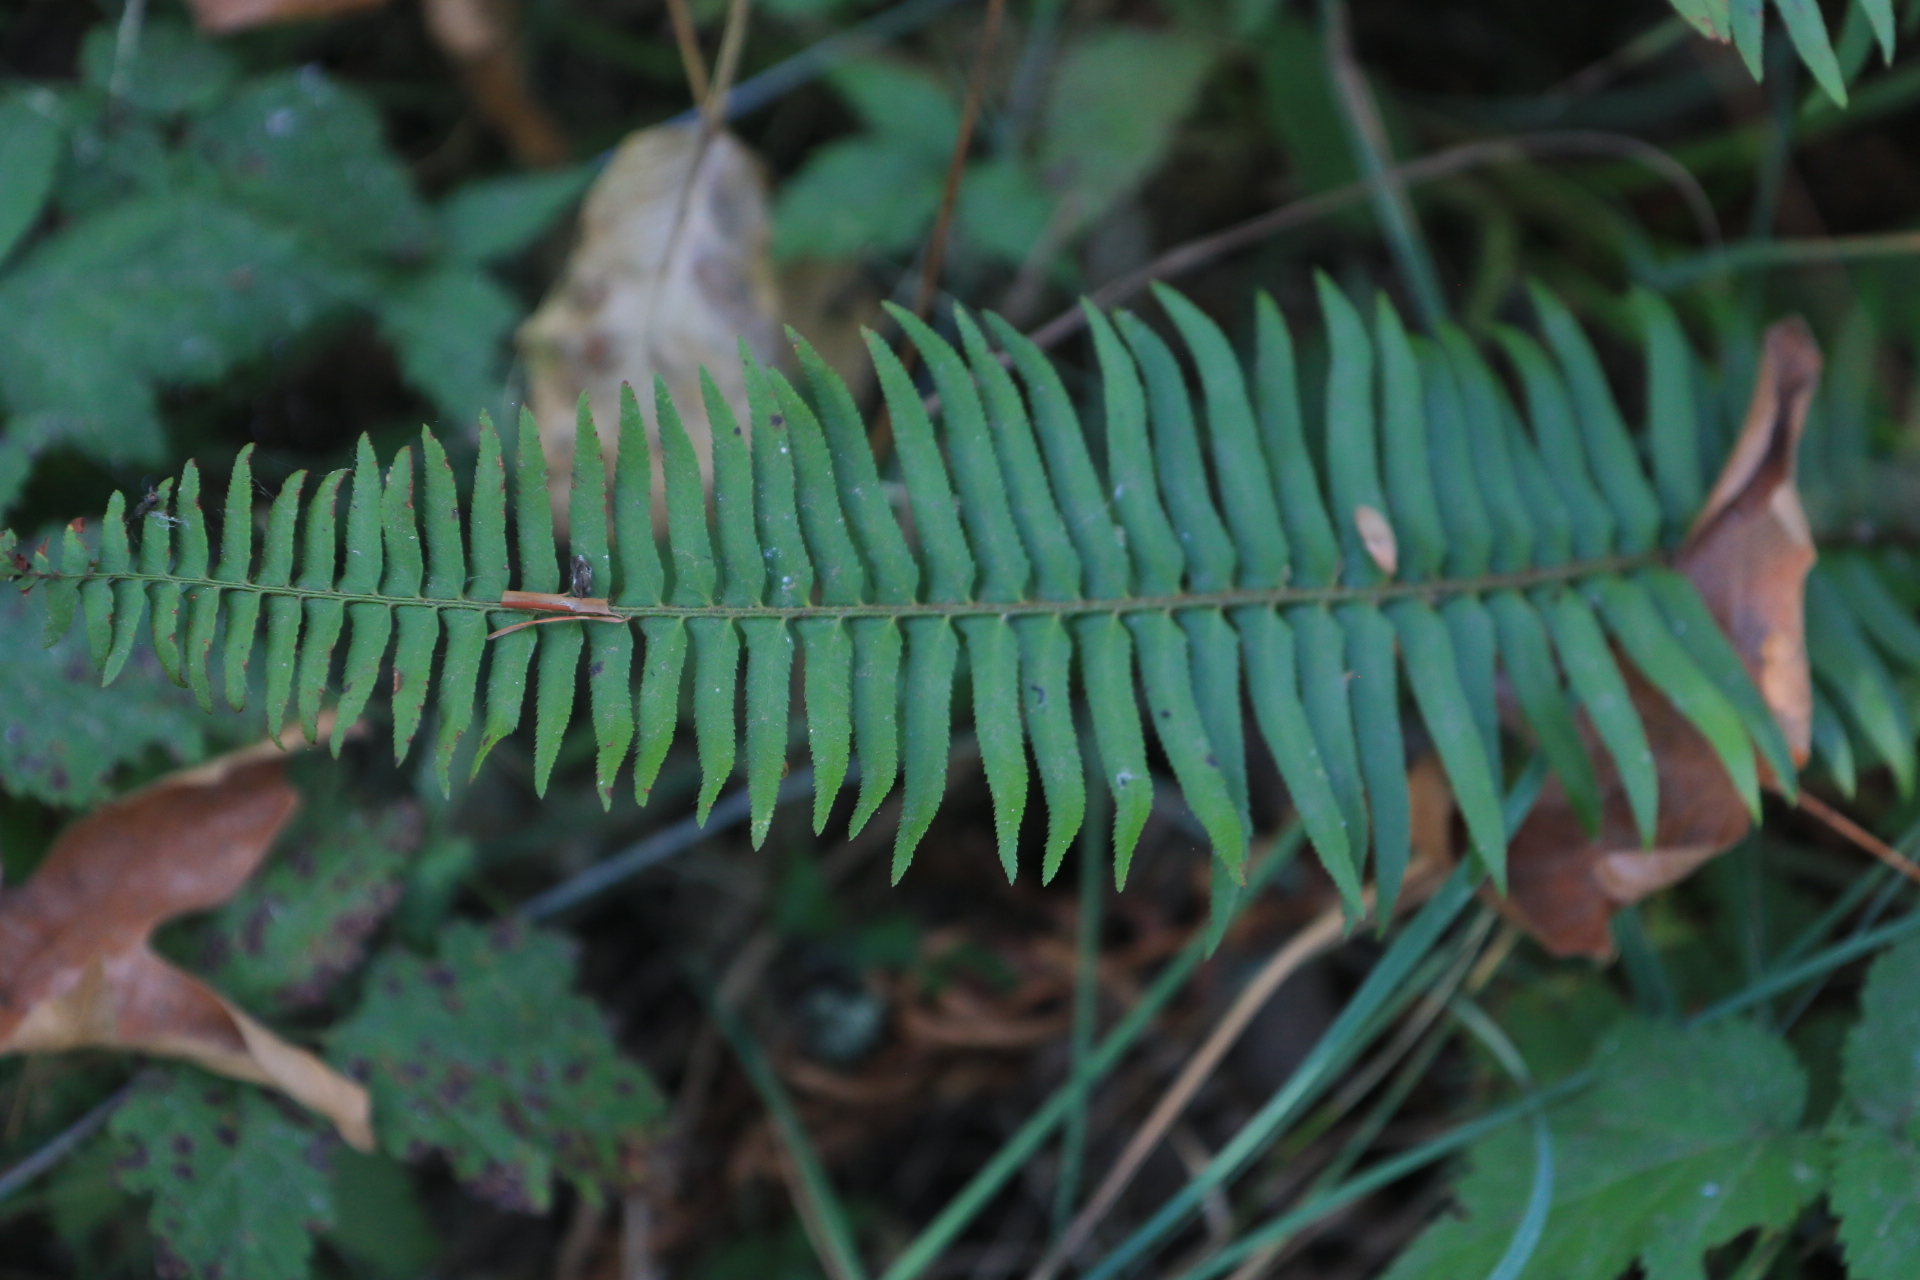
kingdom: Plantae
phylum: Tracheophyta
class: Polypodiopsida
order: Polypodiales
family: Dryopteridaceae
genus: Polystichum
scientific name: Polystichum munitum
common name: Western sword-fern
